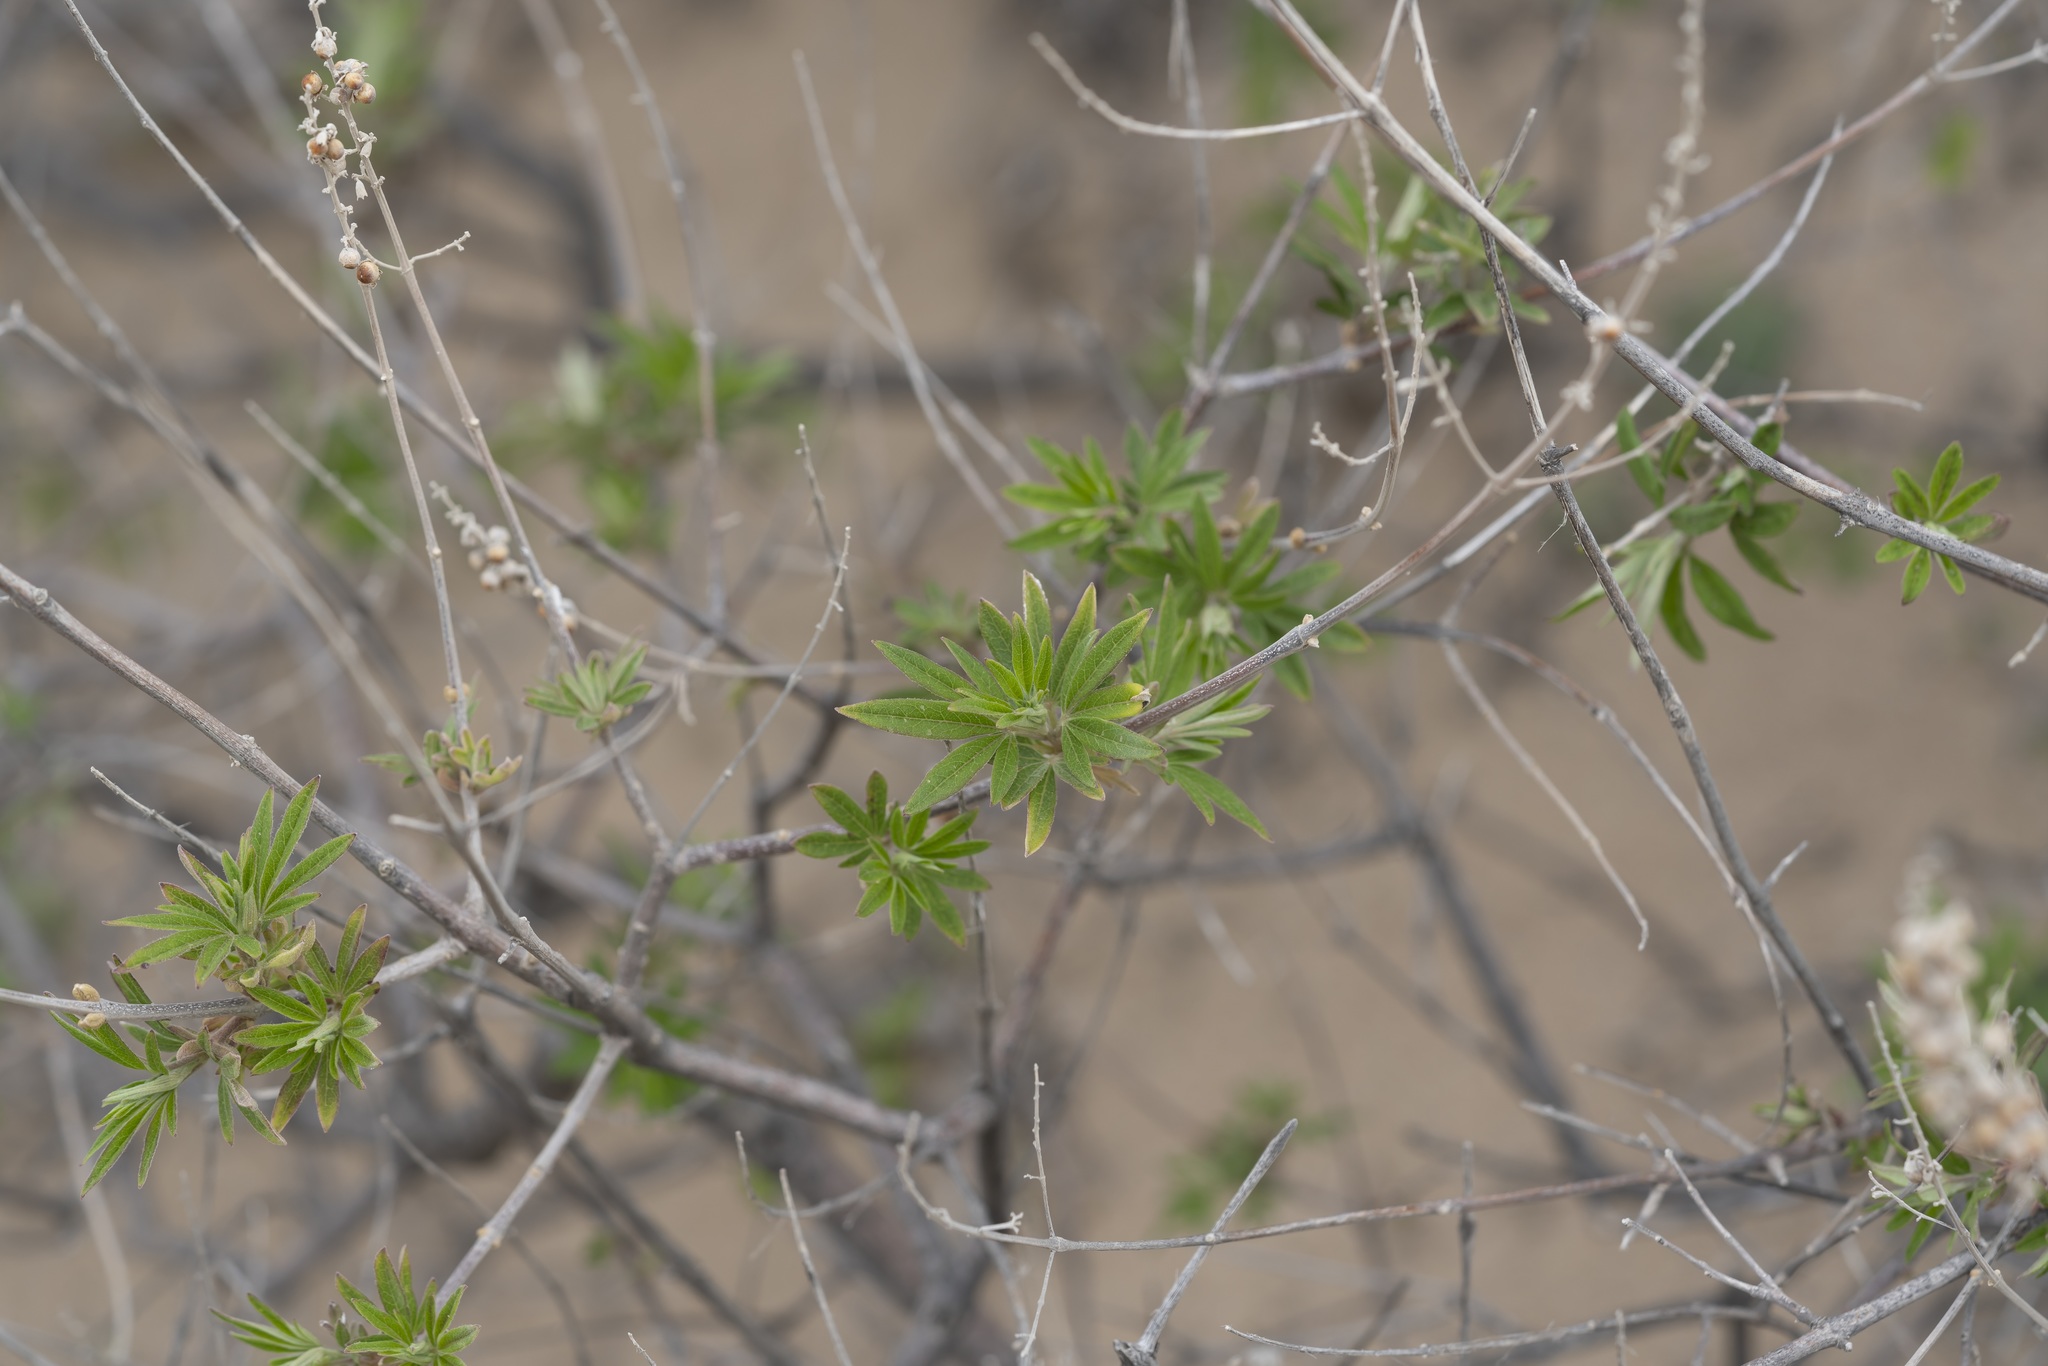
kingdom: Plantae
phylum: Tracheophyta
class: Magnoliopsida
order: Lamiales
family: Lamiaceae
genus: Vitex
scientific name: Vitex agnus-castus
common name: Chasteberry
